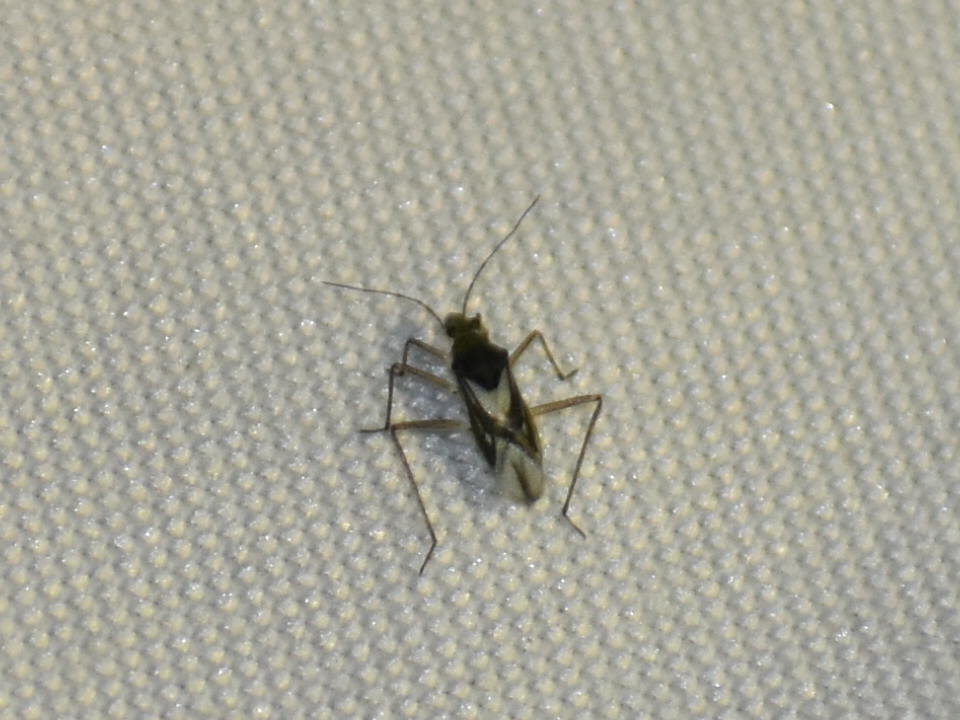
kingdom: Animalia
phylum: Arthropoda
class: Insecta
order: Hemiptera
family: Mesoveliidae
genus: Mesovelia
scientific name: Mesovelia mulsanti
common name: Water treaders
